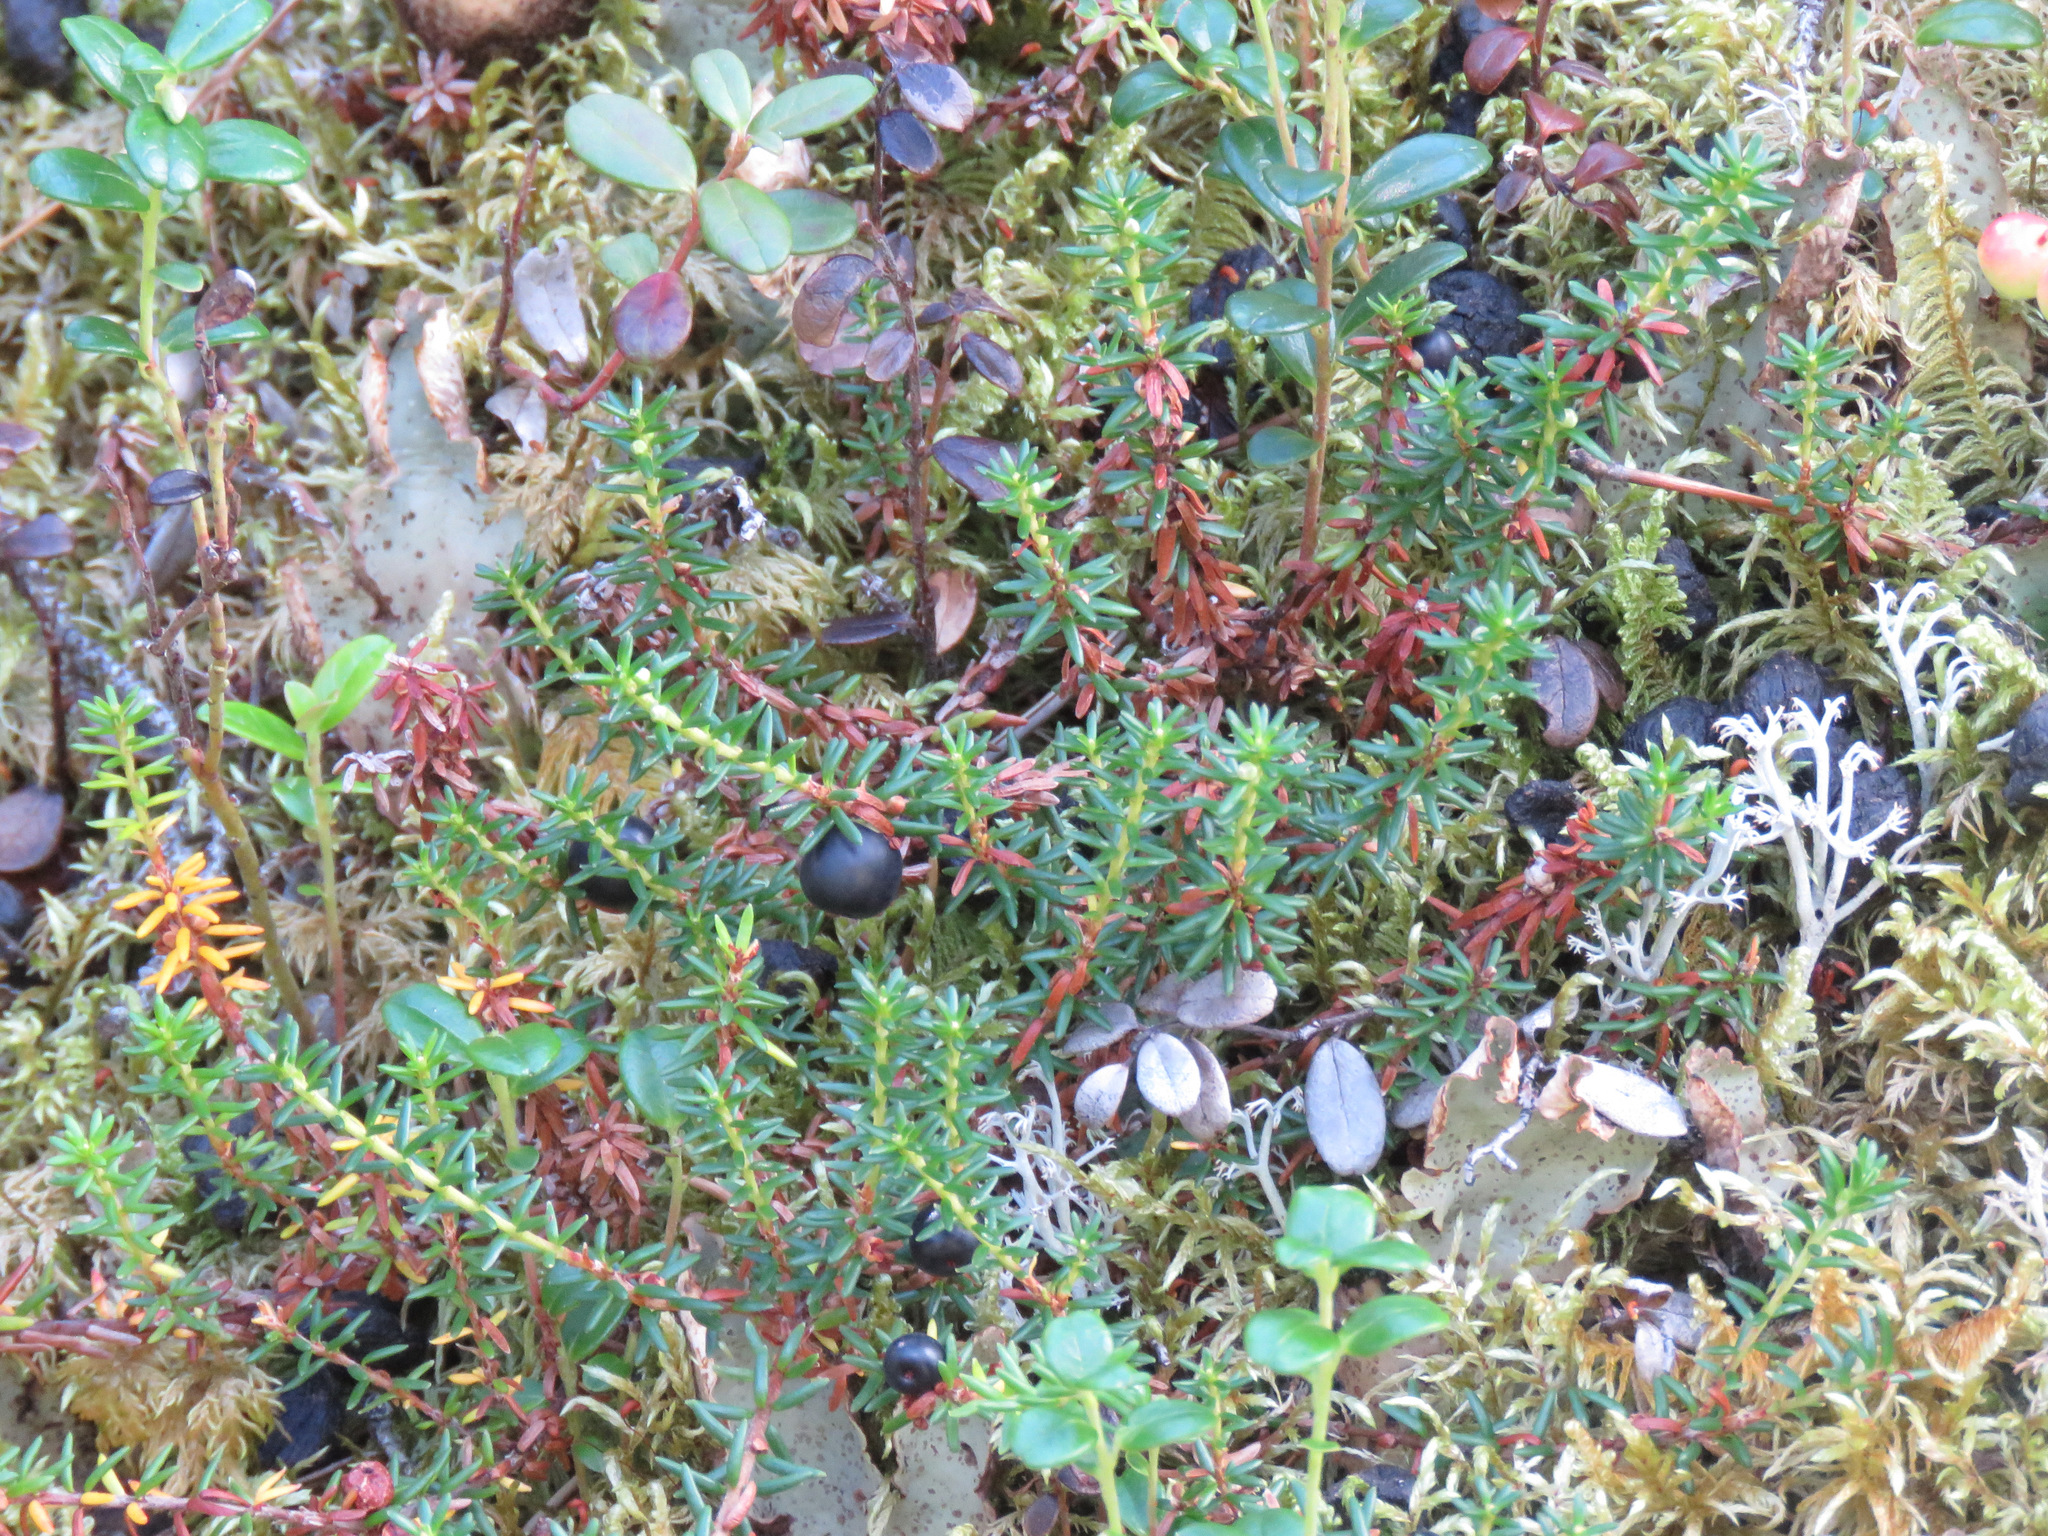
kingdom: Plantae
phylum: Tracheophyta
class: Magnoliopsida
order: Ericales
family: Ericaceae
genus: Empetrum
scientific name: Empetrum nigrum
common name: Black crowberry
